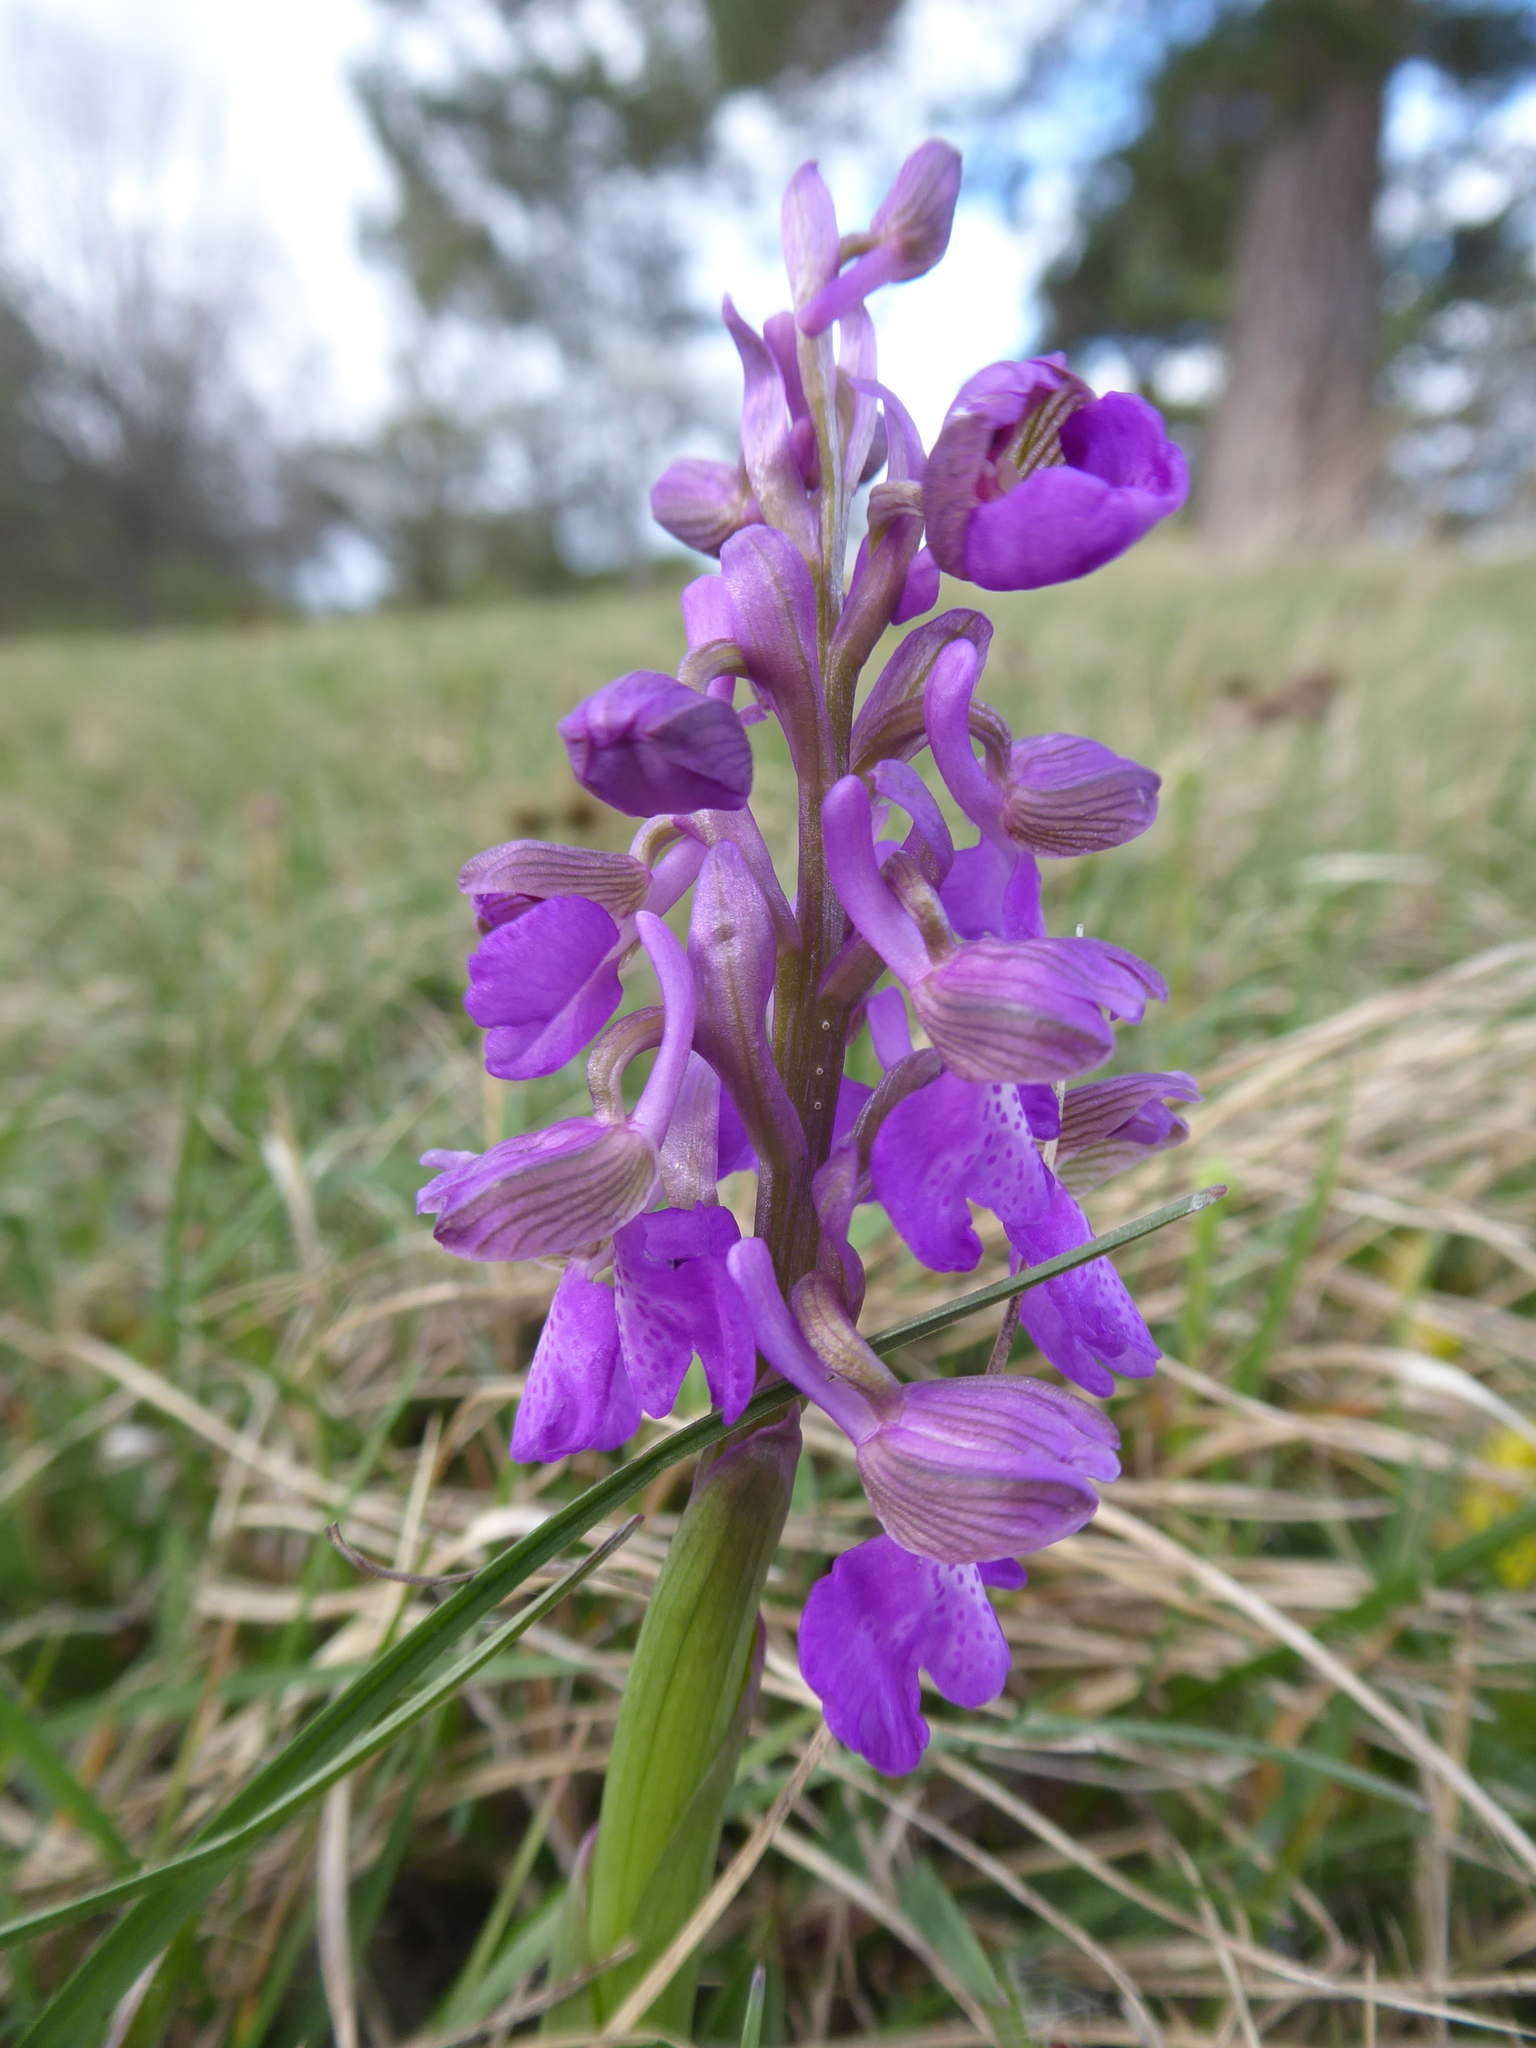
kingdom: Plantae
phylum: Tracheophyta
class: Liliopsida
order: Asparagales
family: Orchidaceae
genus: Anacamptis
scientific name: Anacamptis morio
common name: Green-winged orchid
